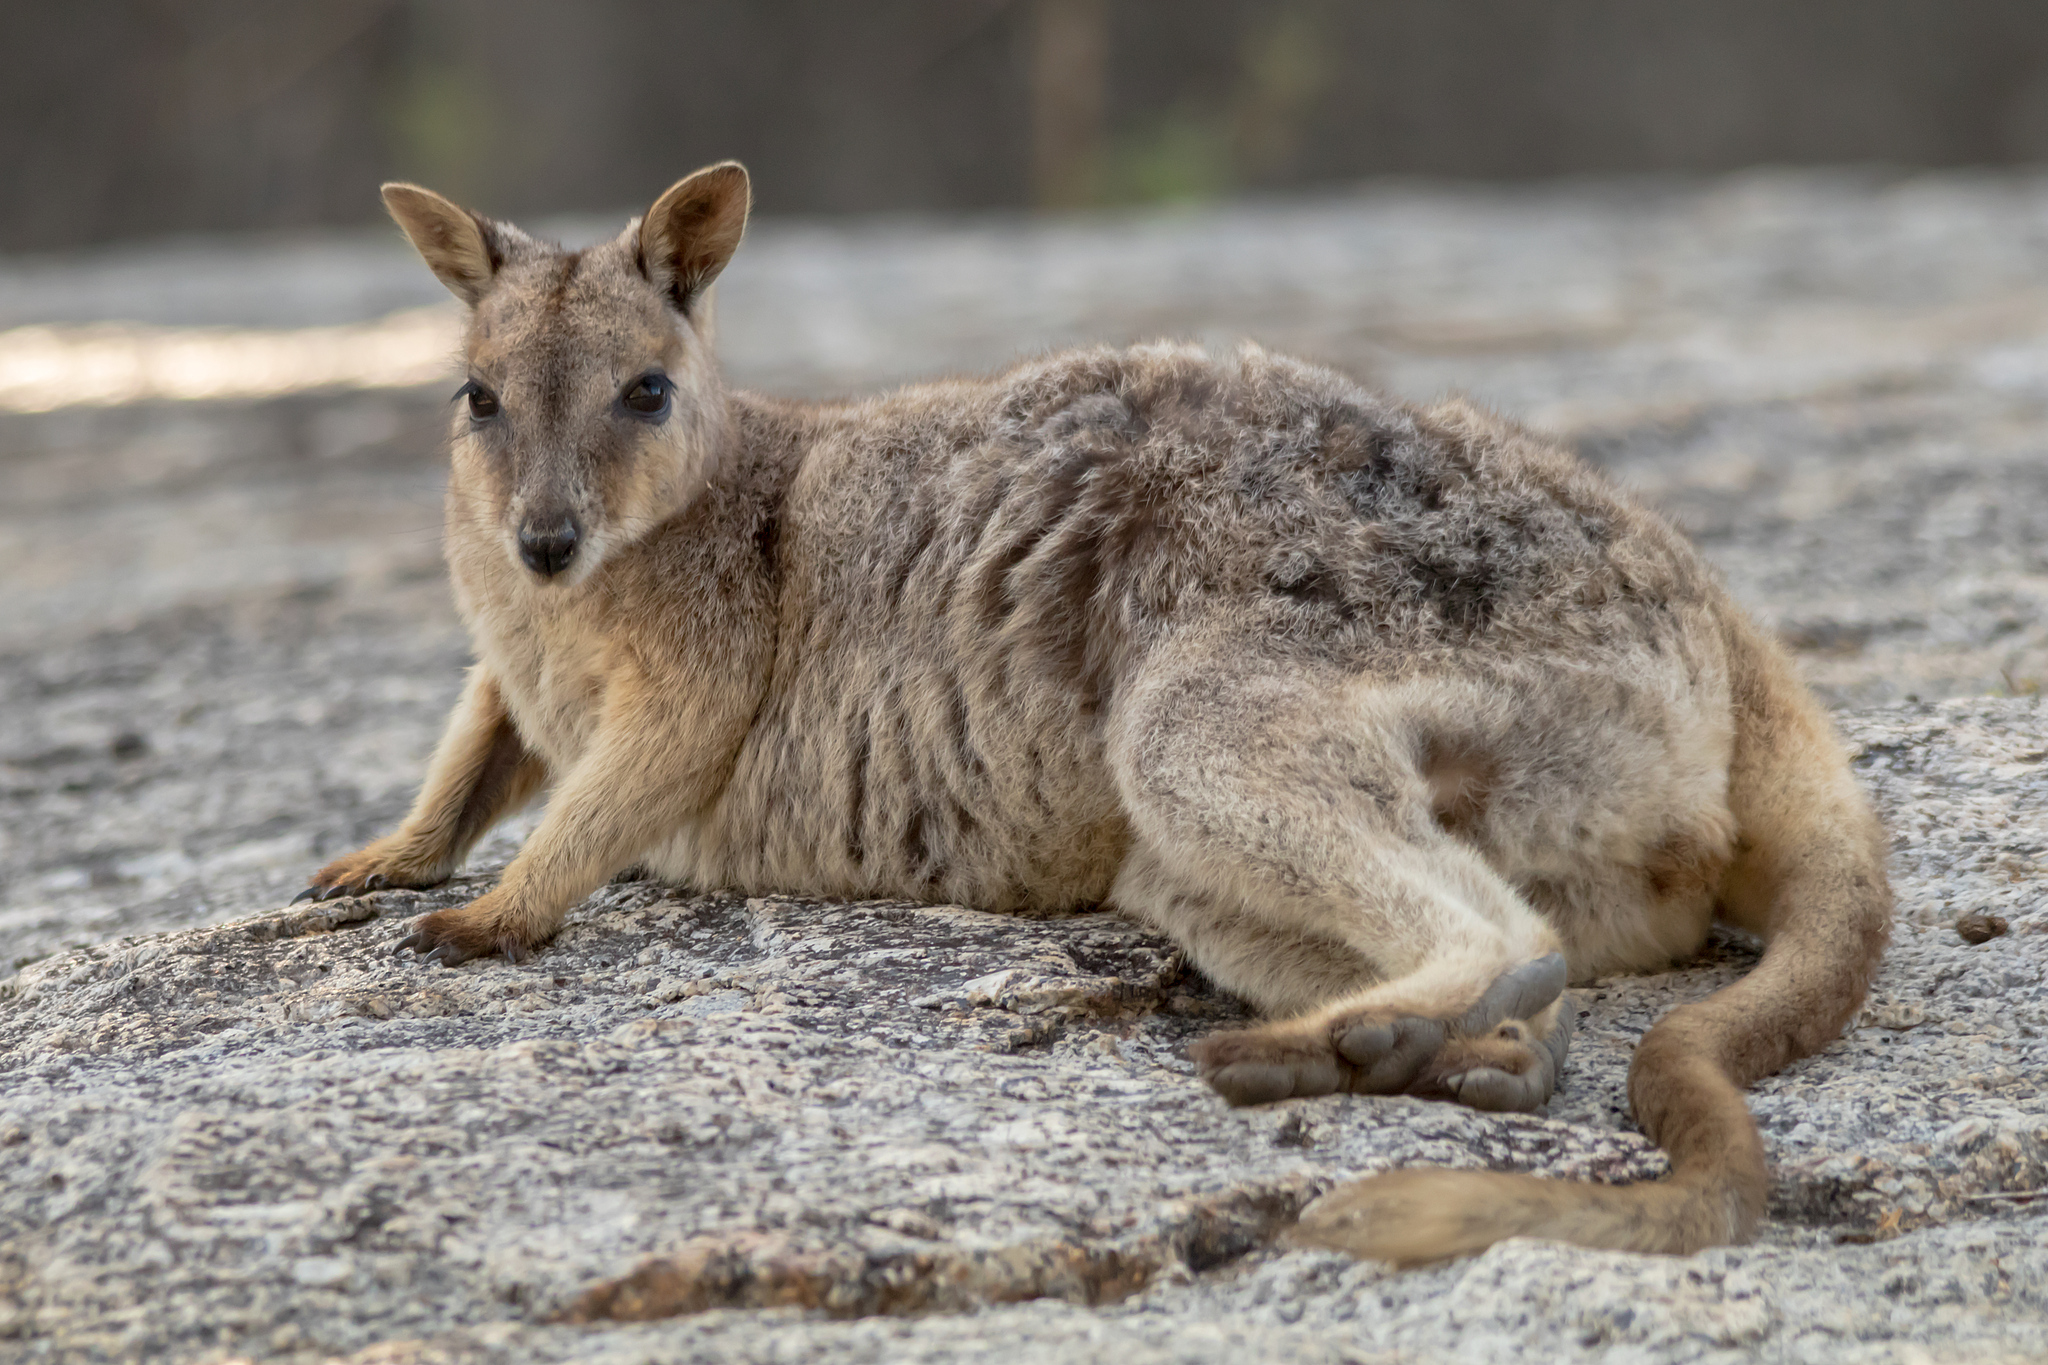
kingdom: Animalia
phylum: Chordata
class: Mammalia
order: Diprotodontia
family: Macropodidae
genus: Petrogale
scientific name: Petrogale mareeba
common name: Mareeba rock-wallaby
